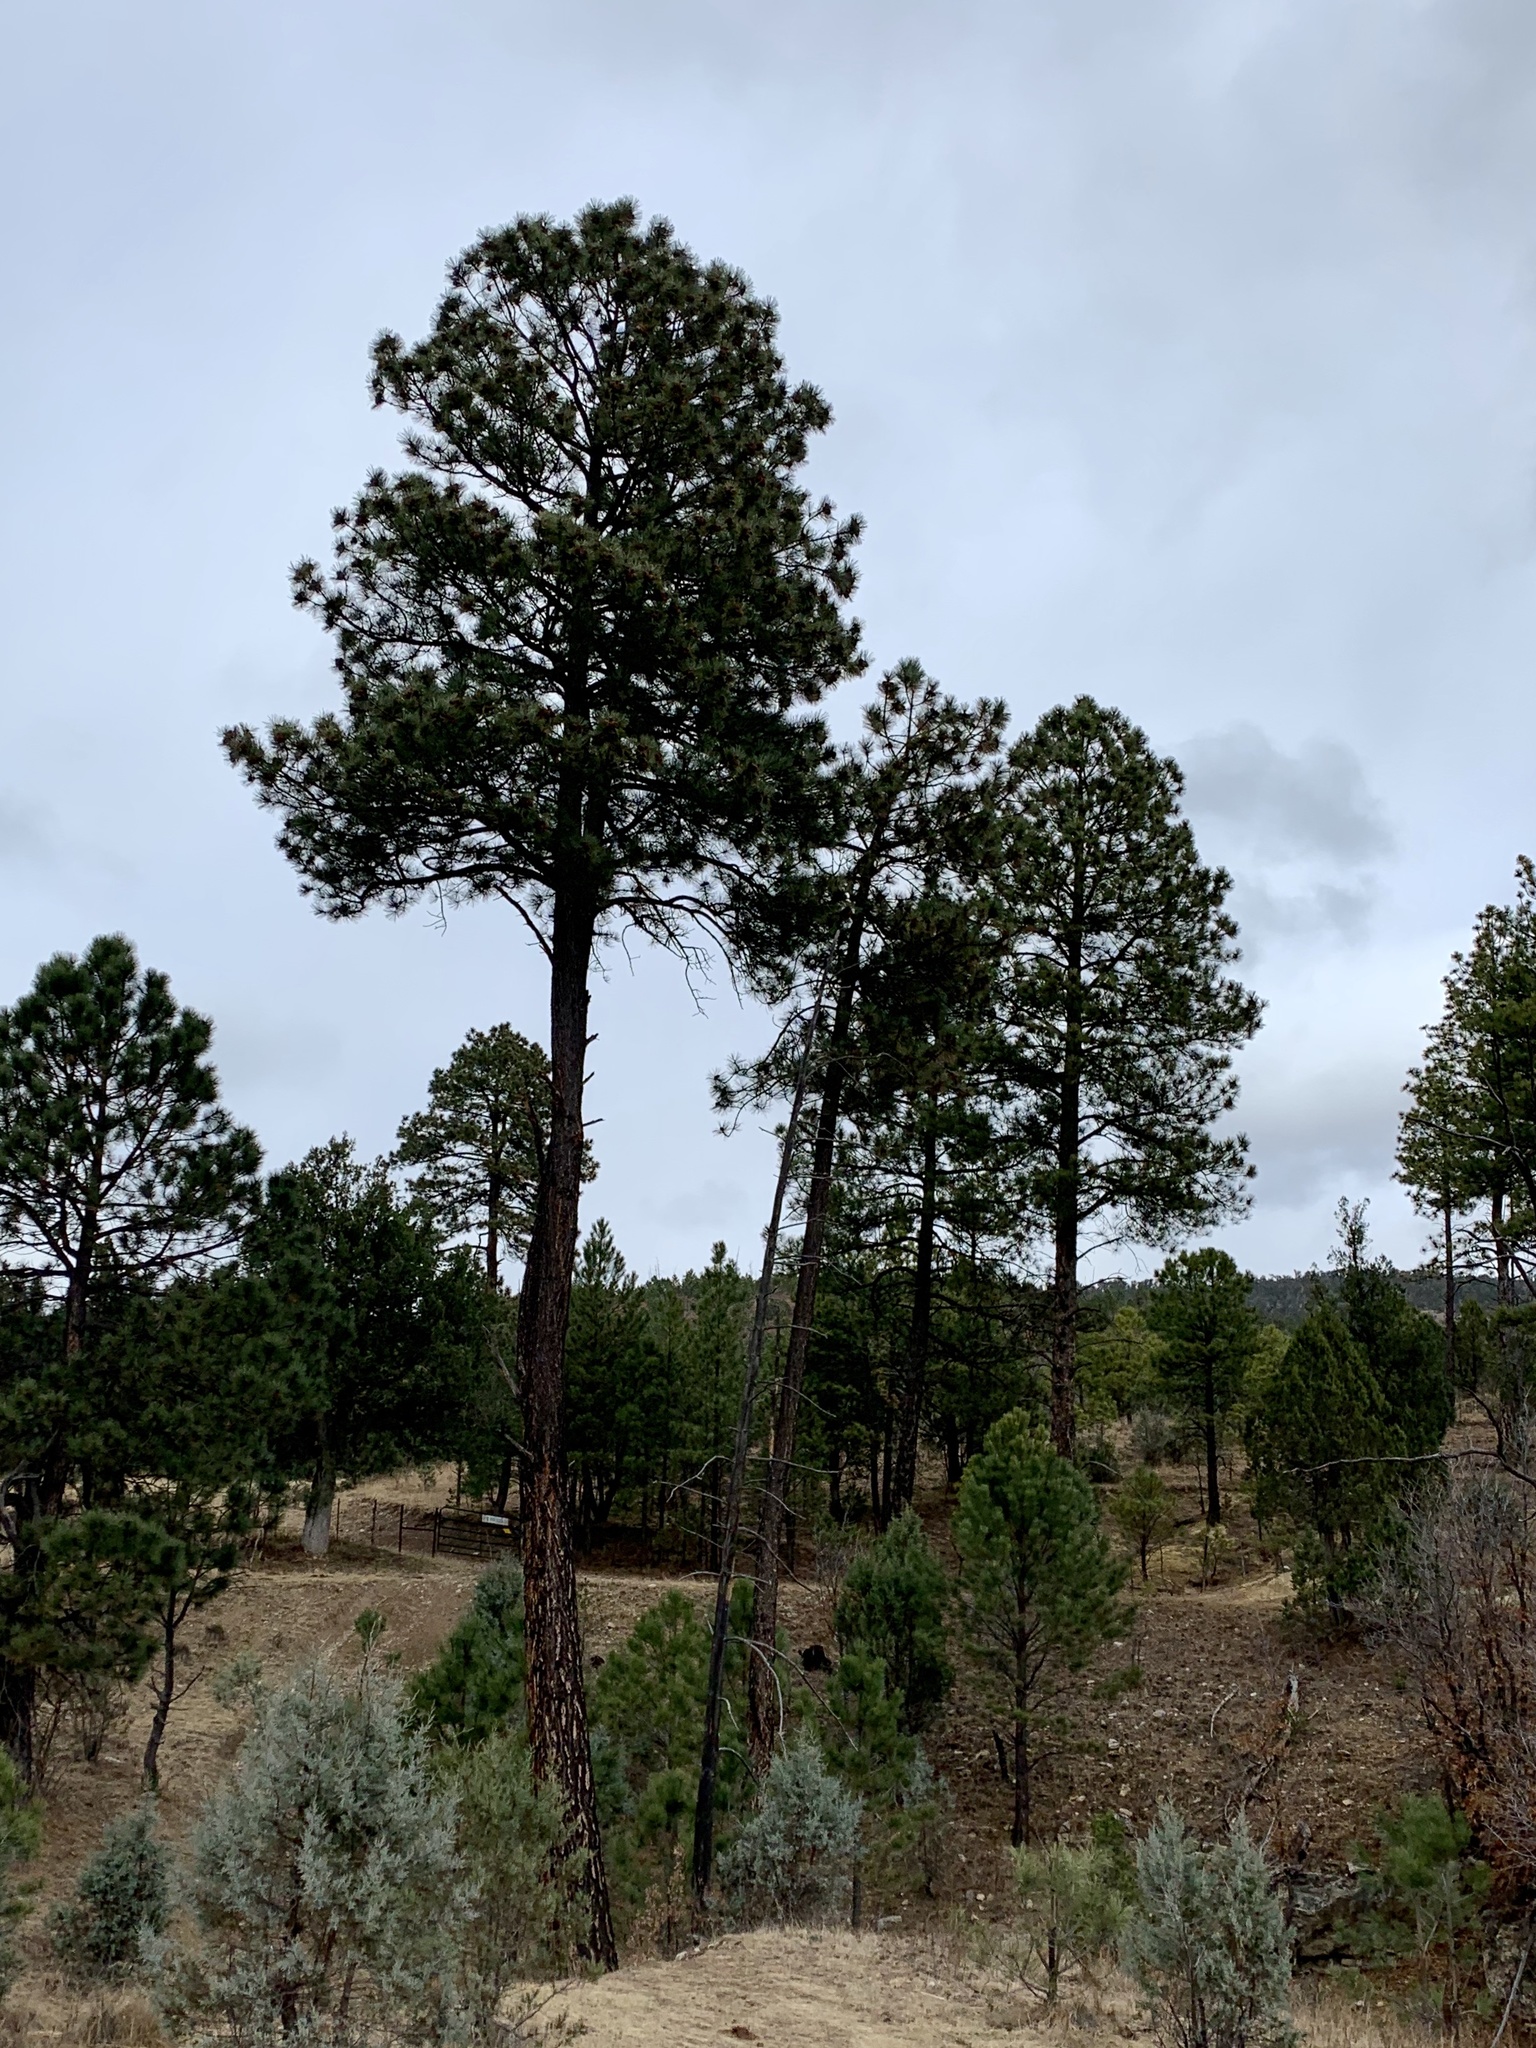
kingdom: Plantae
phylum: Tracheophyta
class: Pinopsida
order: Pinales
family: Pinaceae
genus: Pinus
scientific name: Pinus ponderosa
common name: Western yellow-pine
